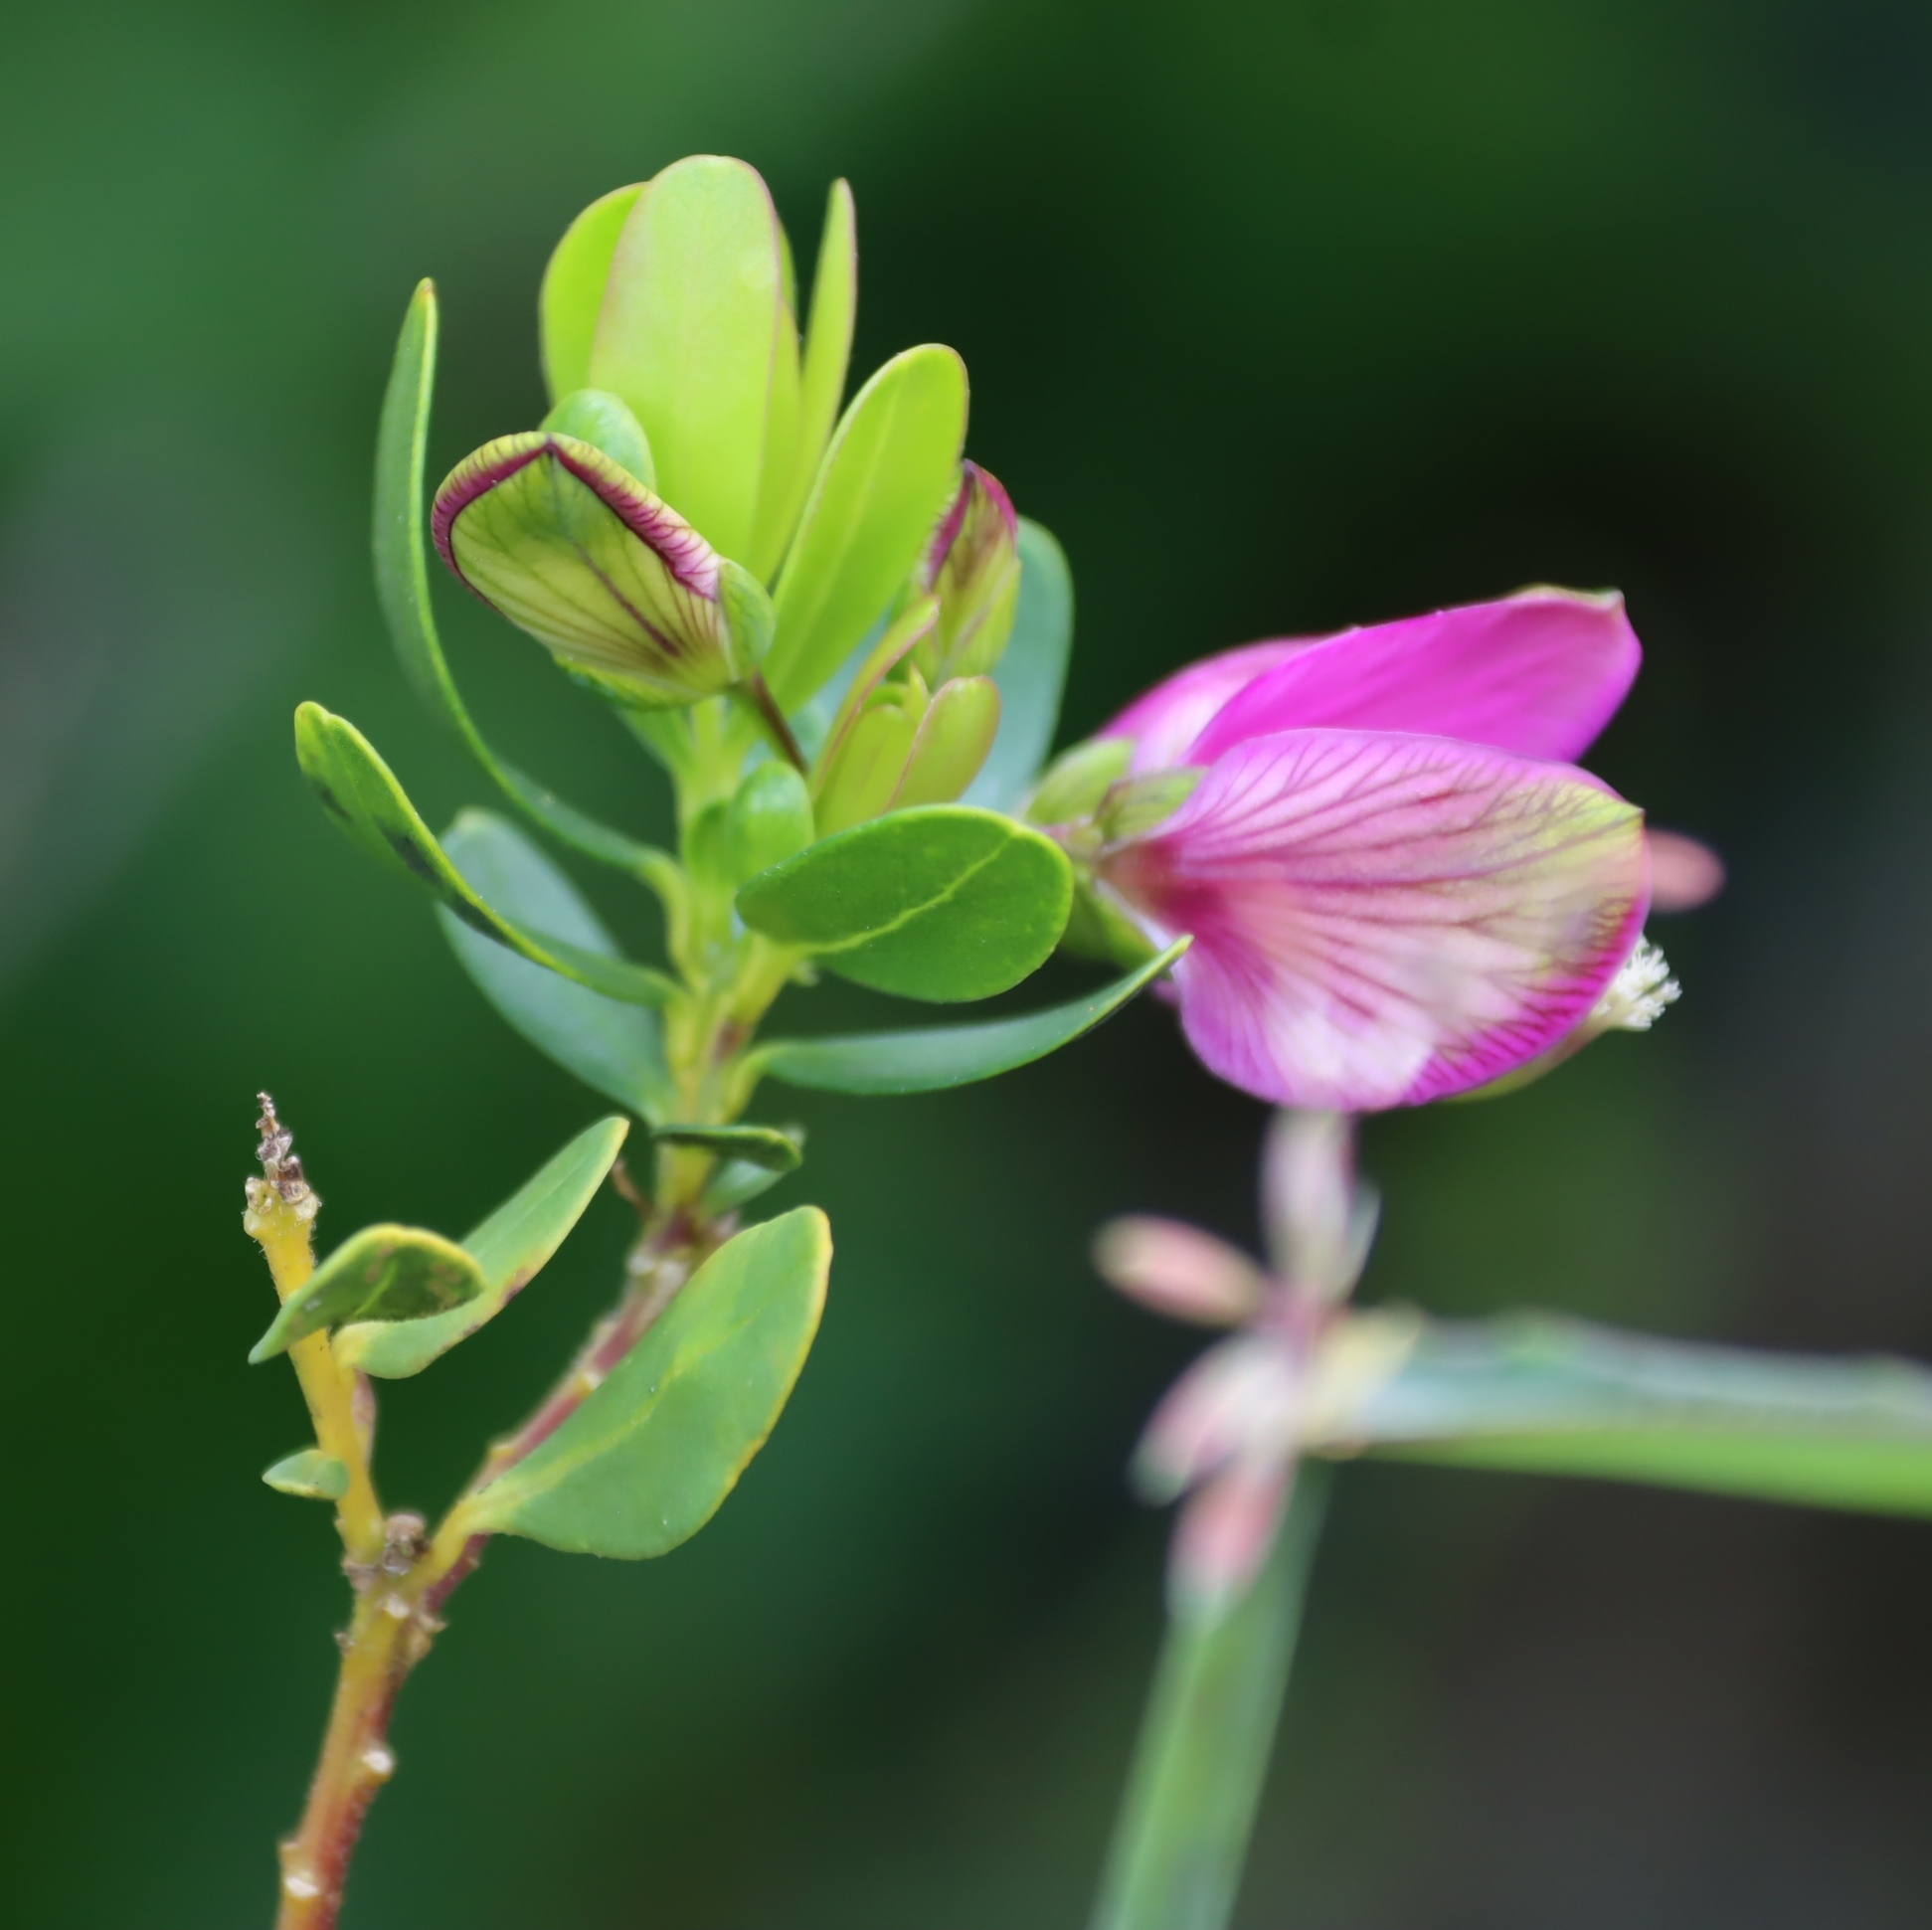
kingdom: Plantae
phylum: Tracheophyta
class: Magnoliopsida
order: Fabales
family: Polygalaceae
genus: Polygala
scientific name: Polygala myrtifolia
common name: Myrtle-leaf milkwort
